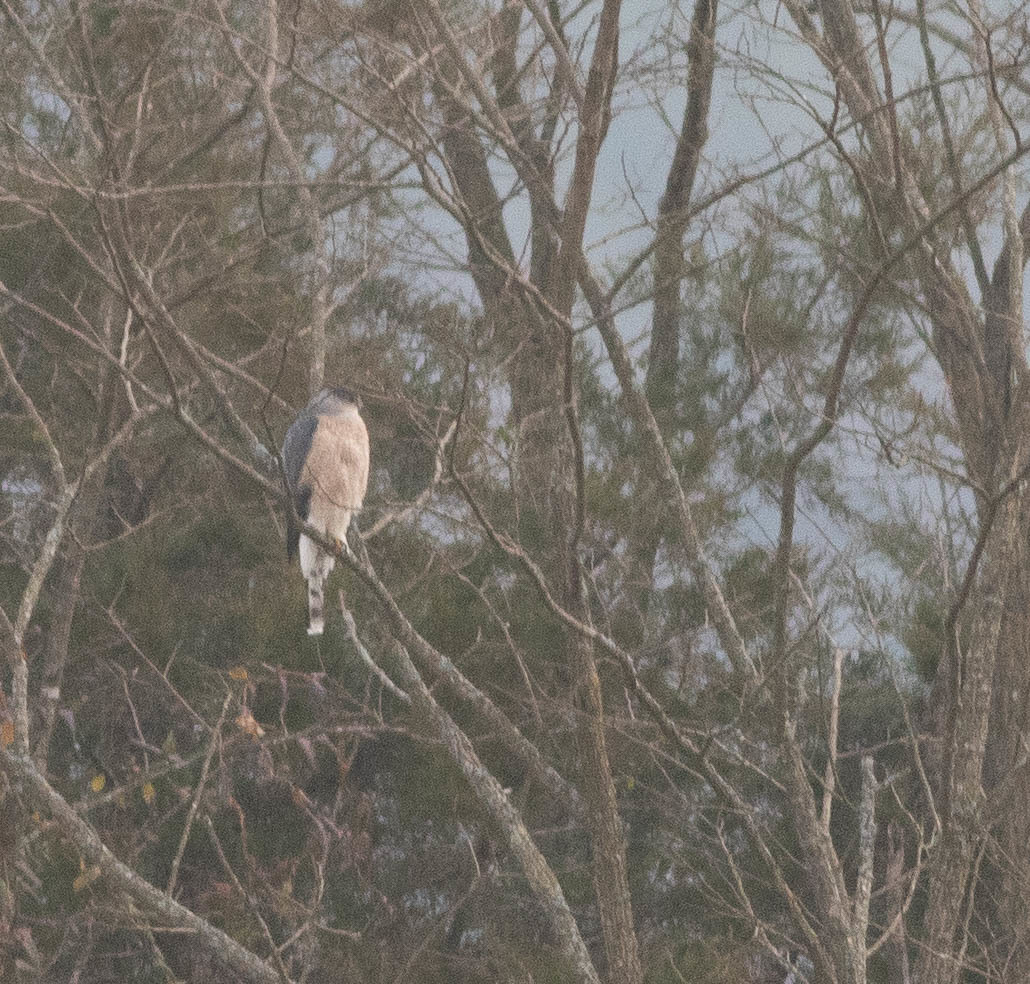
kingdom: Animalia
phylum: Chordata
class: Aves
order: Accipitriformes
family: Accipitridae
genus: Accipiter
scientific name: Accipiter cooperii
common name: Cooper's hawk
